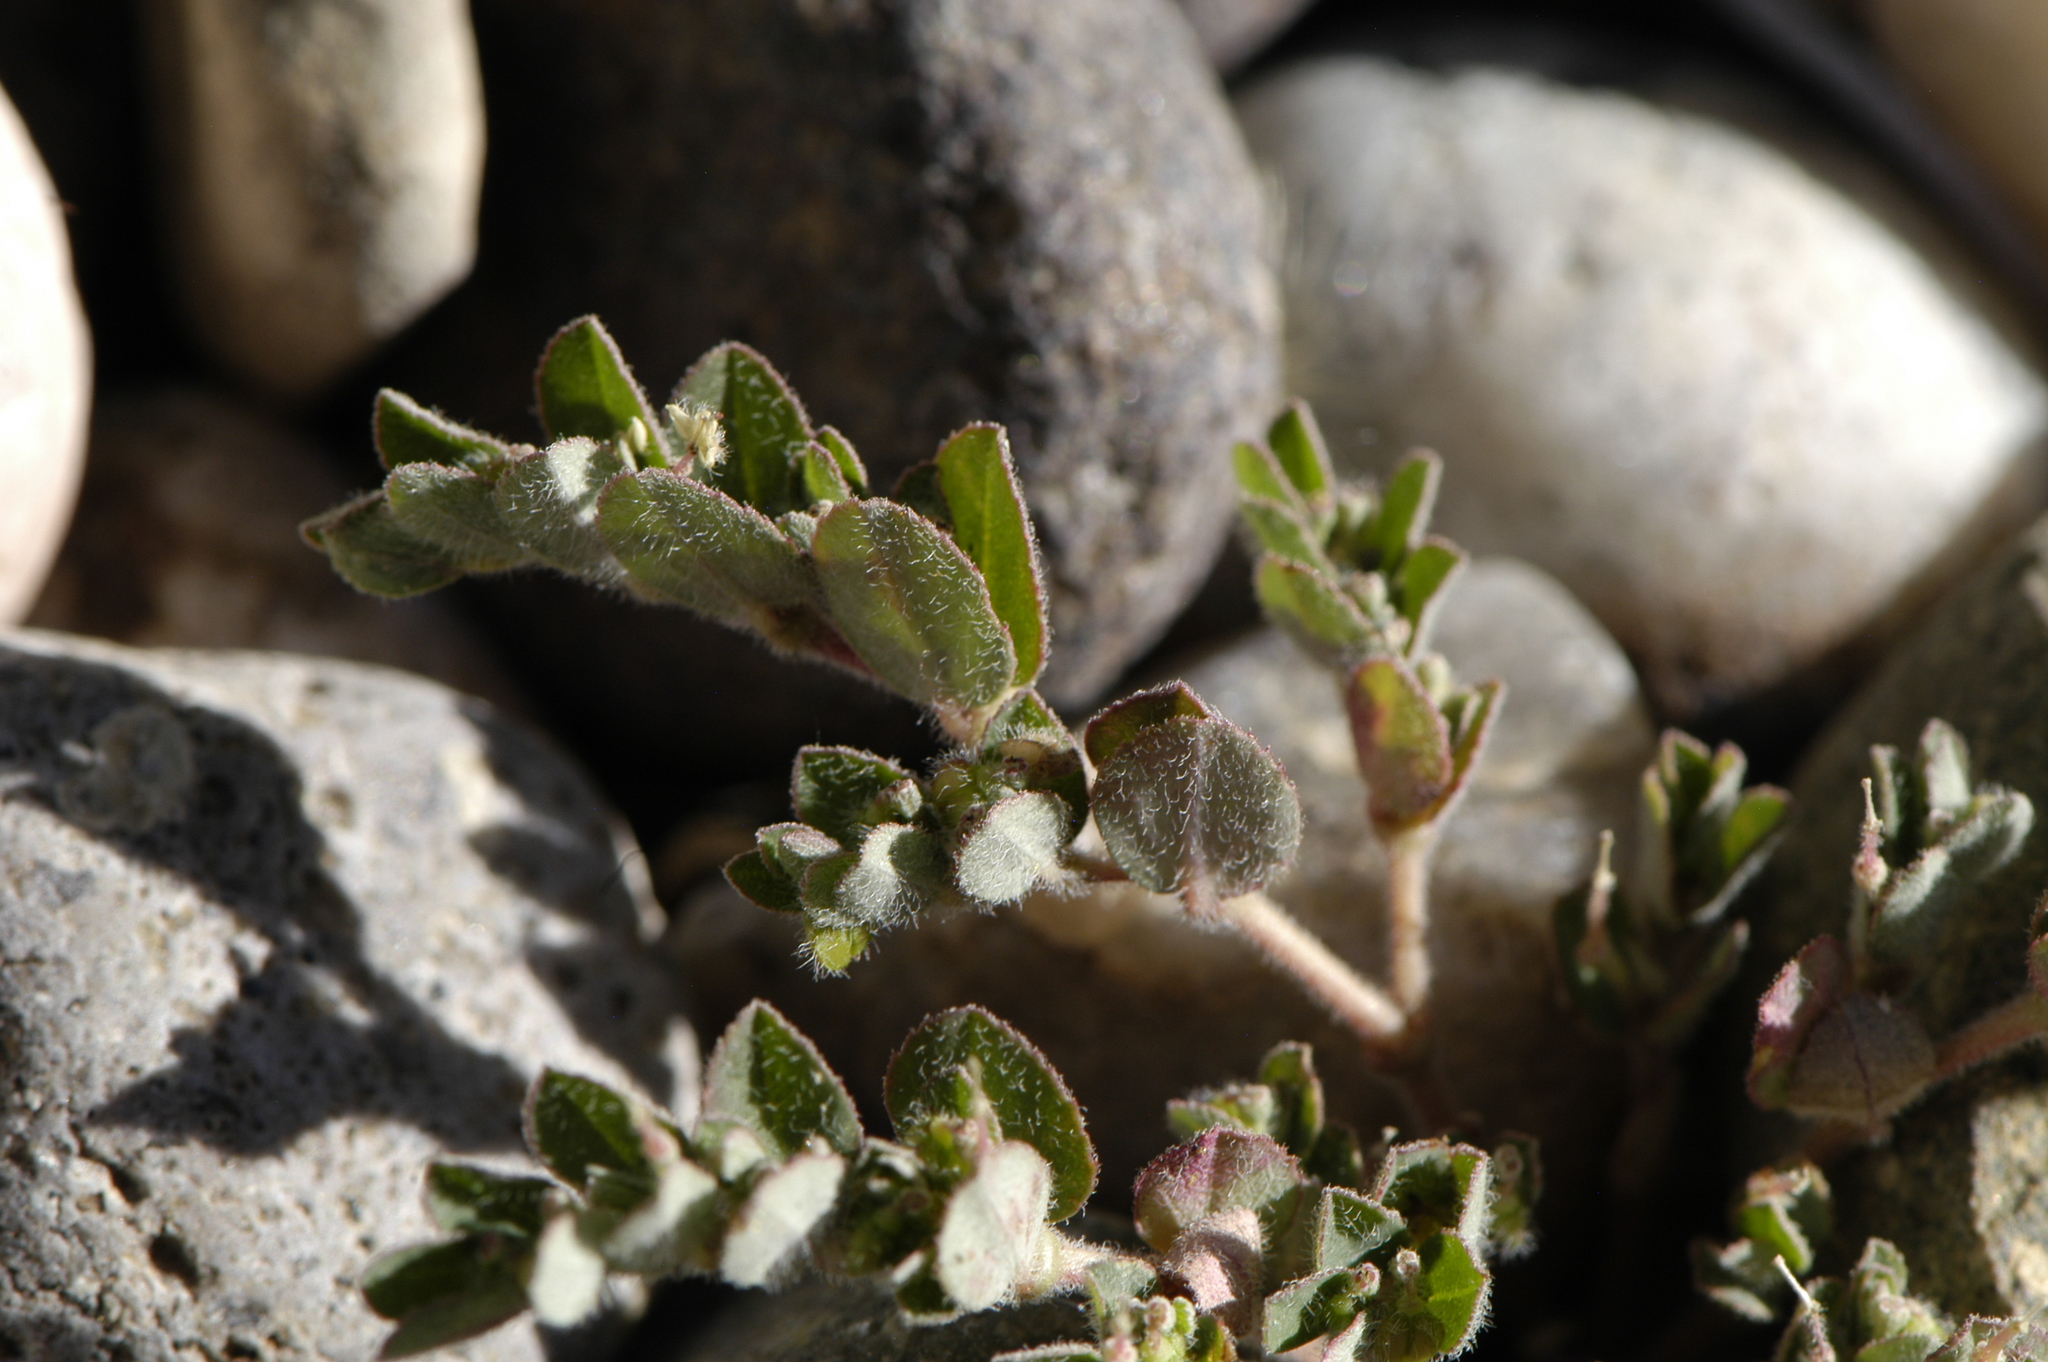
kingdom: Plantae
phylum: Tracheophyta
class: Magnoliopsida
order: Malpighiales
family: Euphorbiaceae
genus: Euphorbia
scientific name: Euphorbia prostrata
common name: Prostrate sandmat
